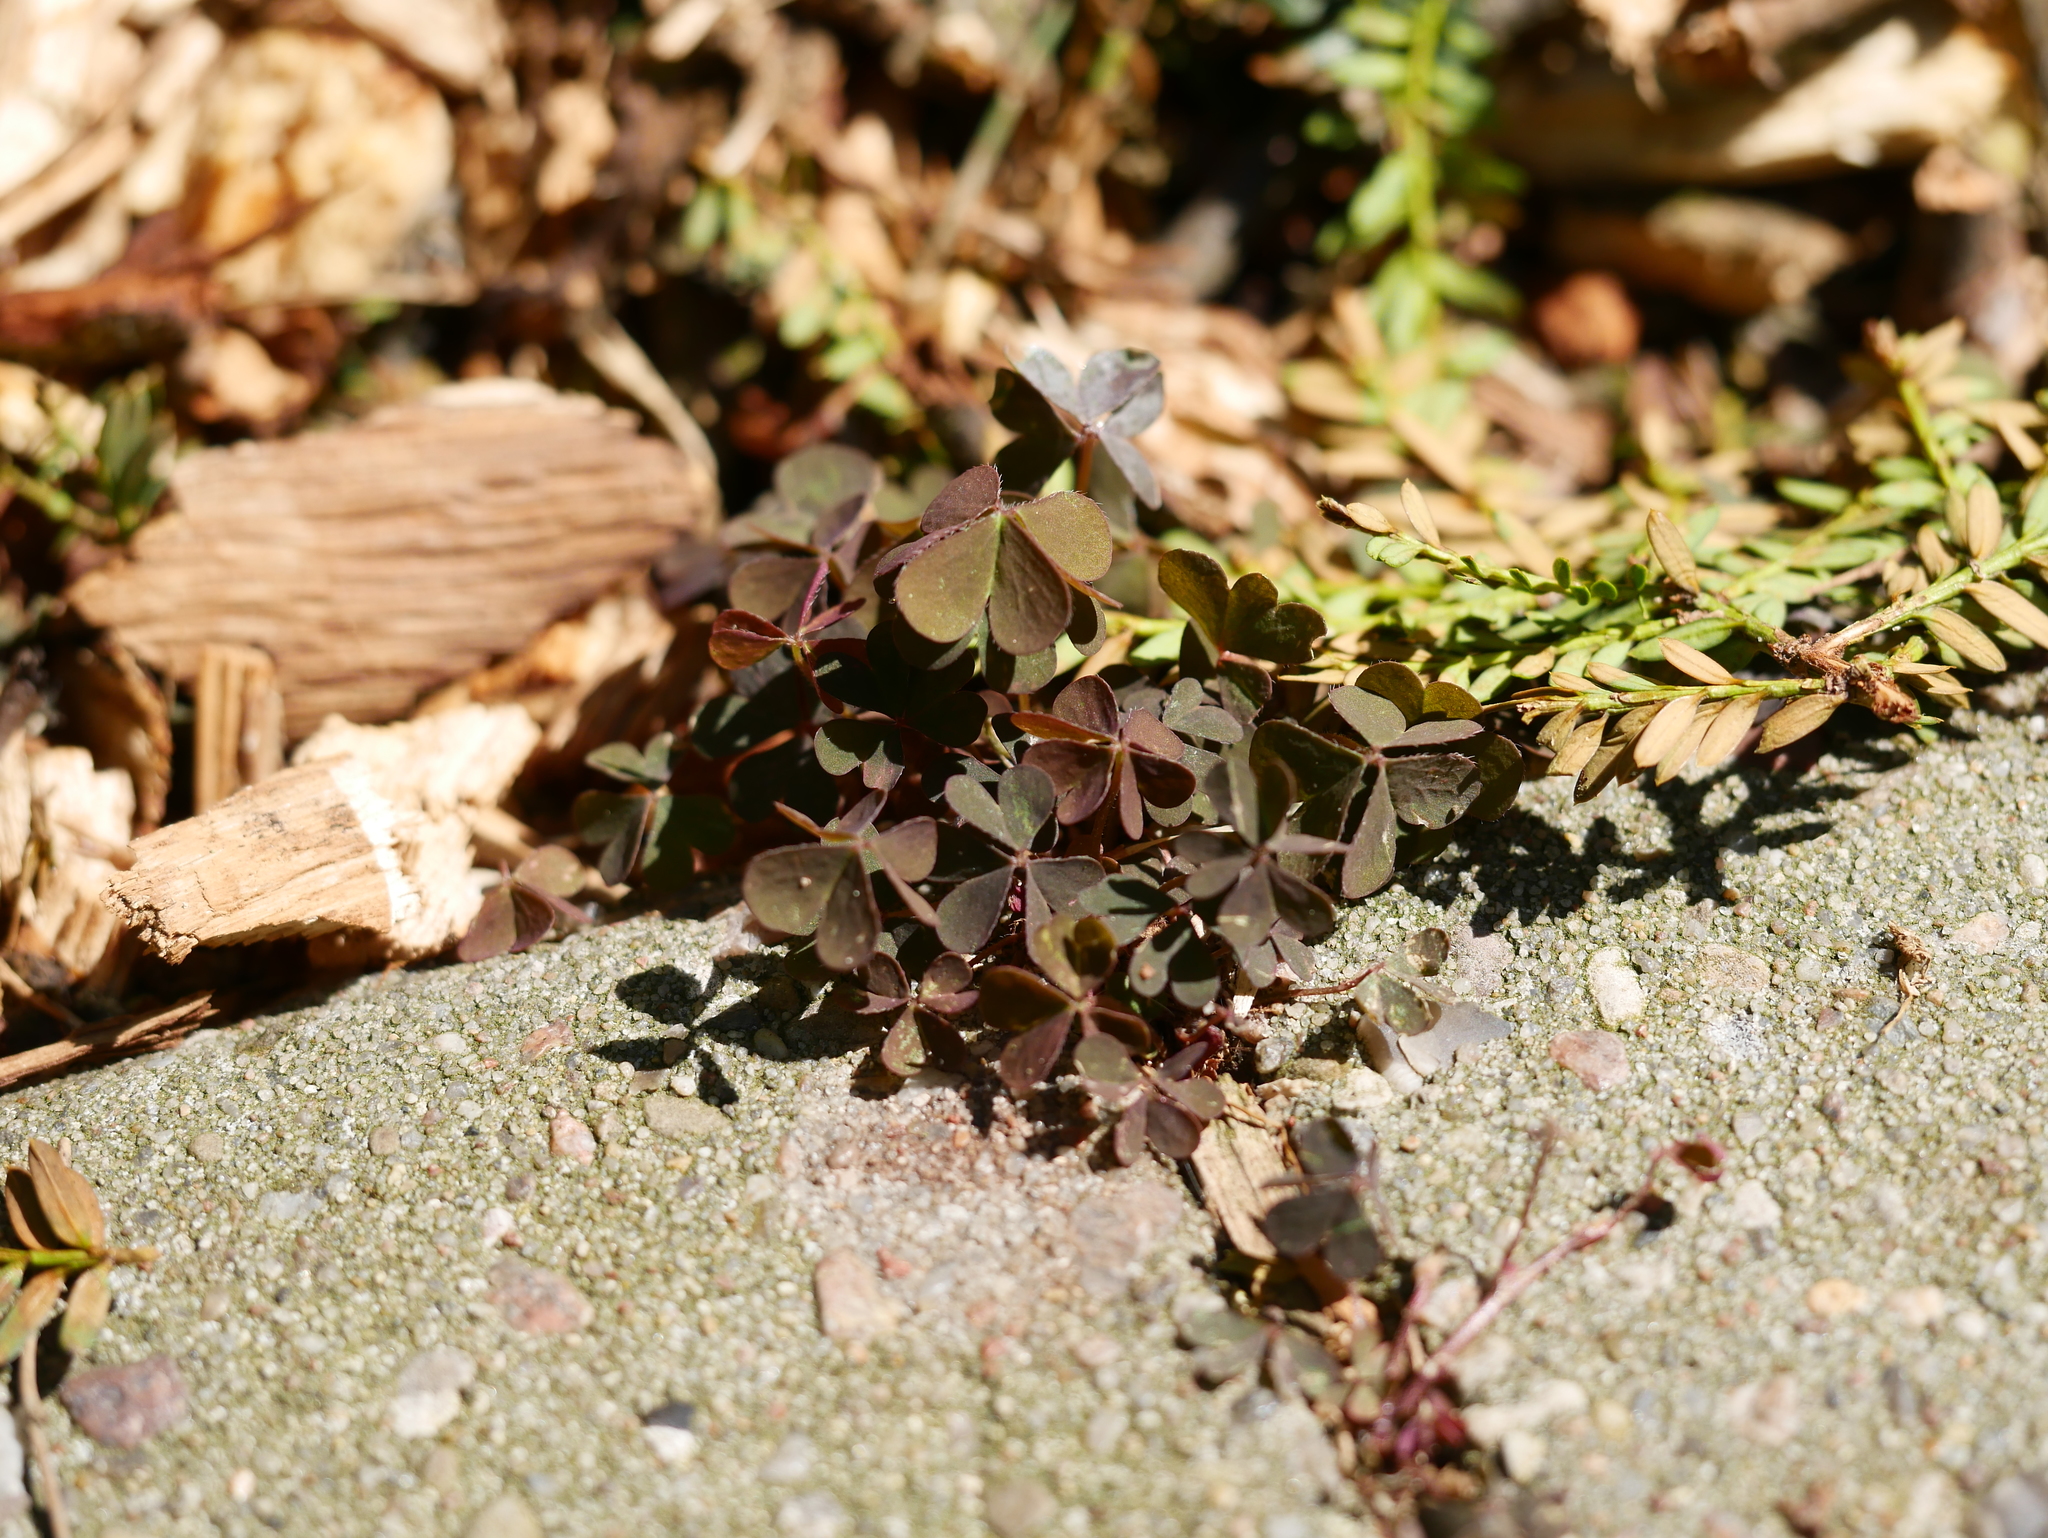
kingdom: Plantae
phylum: Tracheophyta
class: Magnoliopsida
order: Oxalidales
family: Oxalidaceae
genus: Oxalis
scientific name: Oxalis corniculata
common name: Procumbent yellow-sorrel
